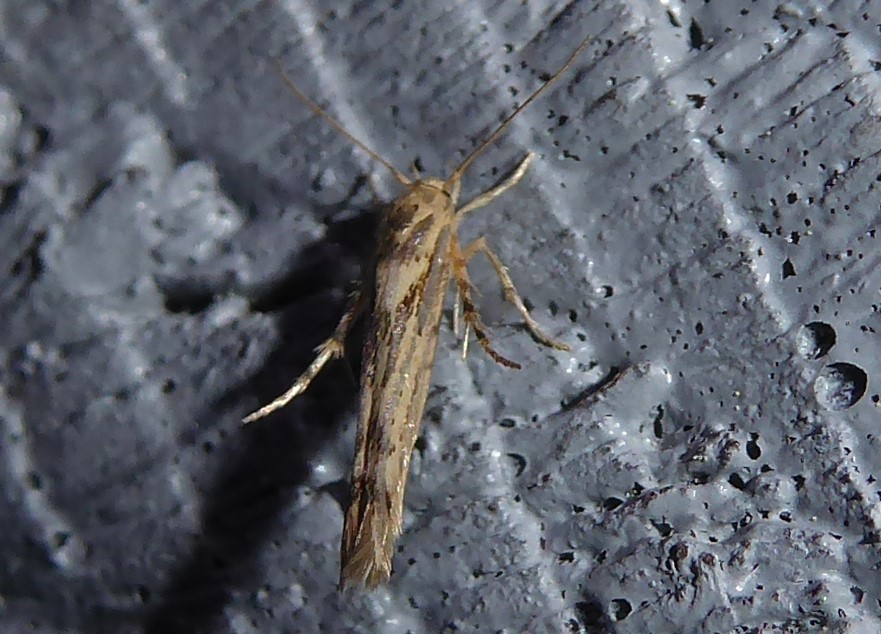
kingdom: Animalia
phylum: Arthropoda
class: Insecta
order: Lepidoptera
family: Stathmopodidae
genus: Stathmopoda
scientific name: Stathmopoda plumbiflua
